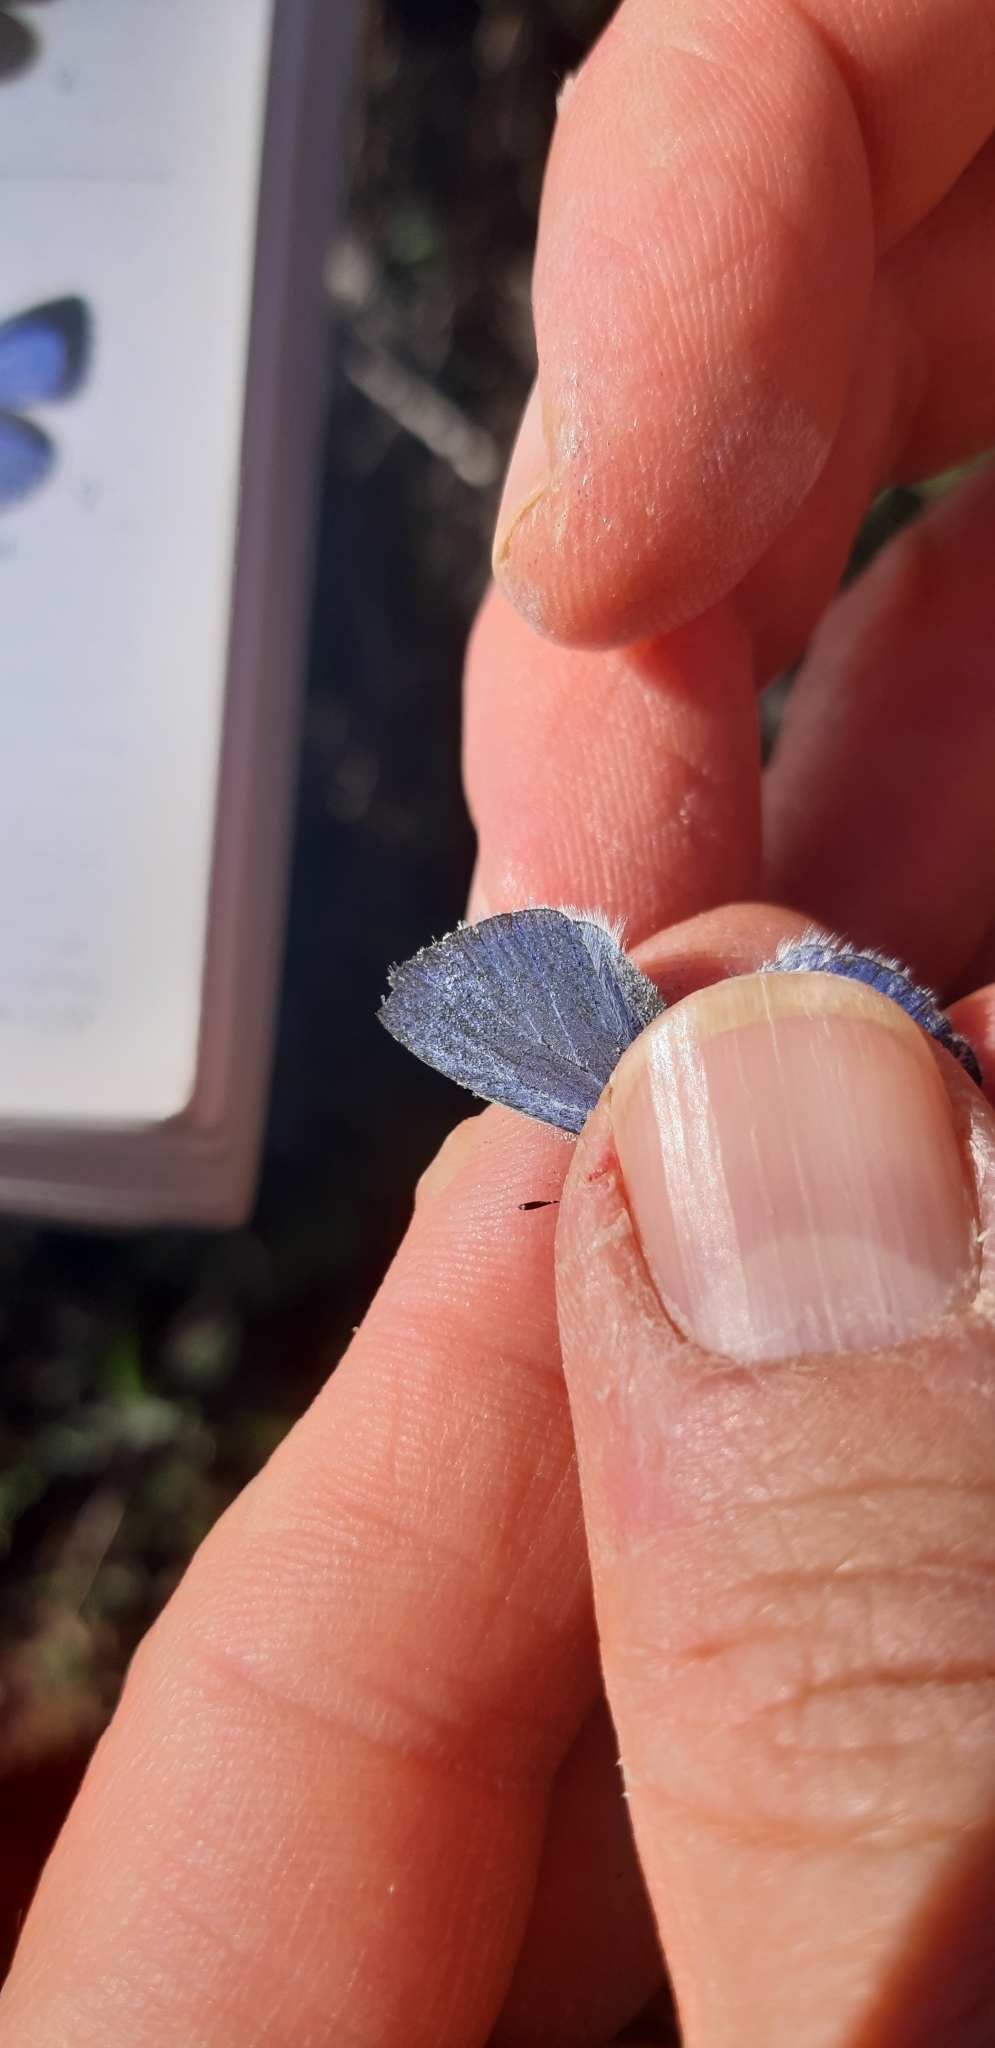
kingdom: Animalia
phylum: Arthropoda
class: Insecta
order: Lepidoptera
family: Lycaenidae
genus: Celastrina
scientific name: Celastrina argiolus
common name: Holly blue
